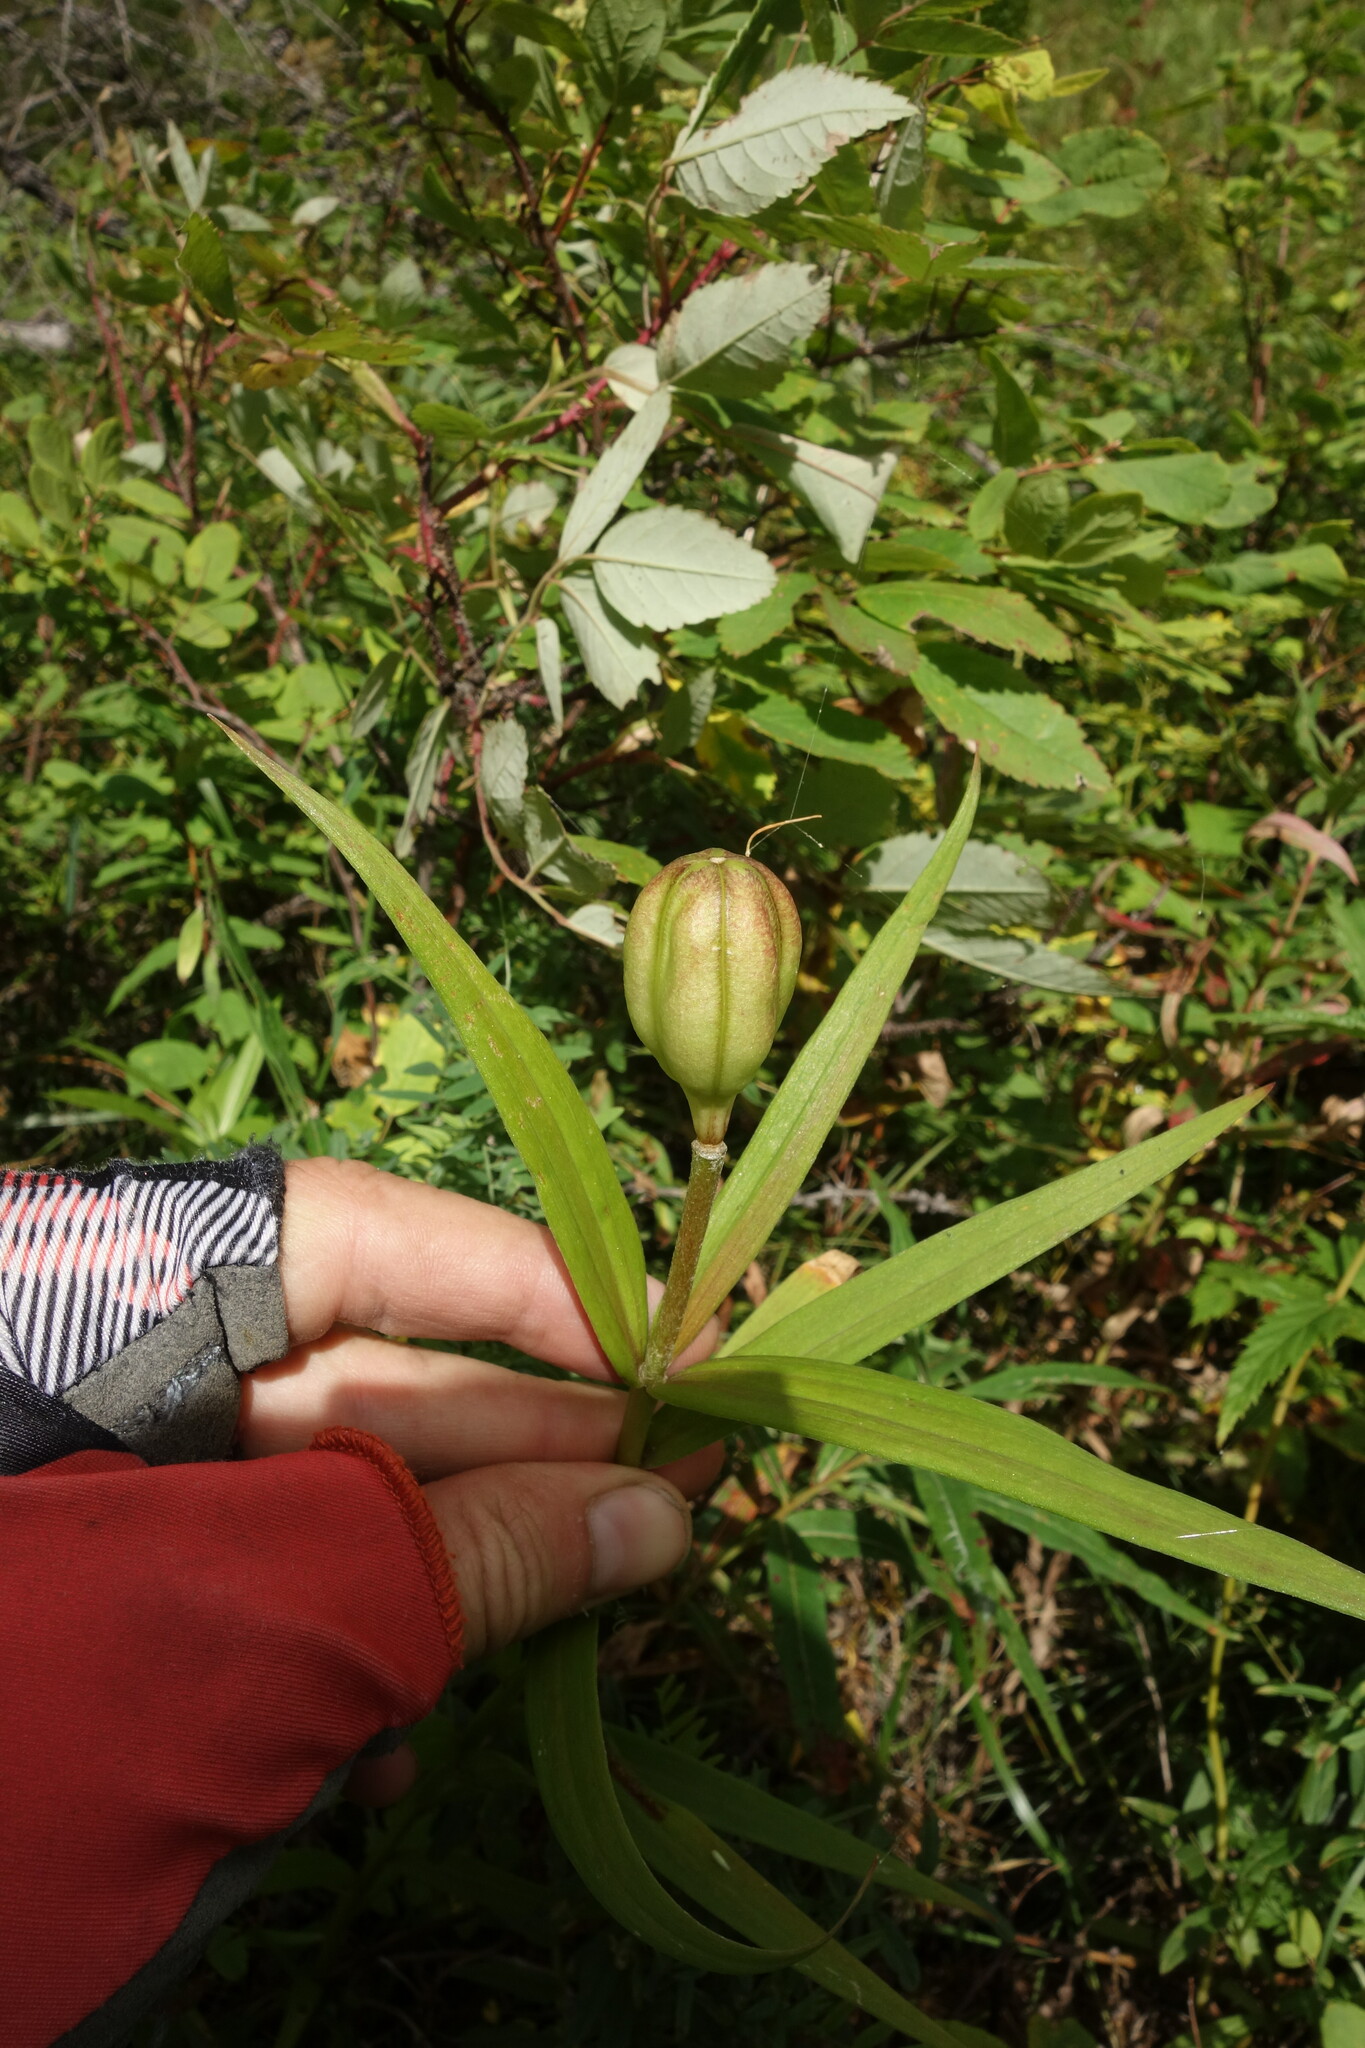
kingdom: Plantae
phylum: Tracheophyta
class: Liliopsida
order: Liliales
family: Liliaceae
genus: Lilium
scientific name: Lilium pensylvanicum
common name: Candlestick lily
